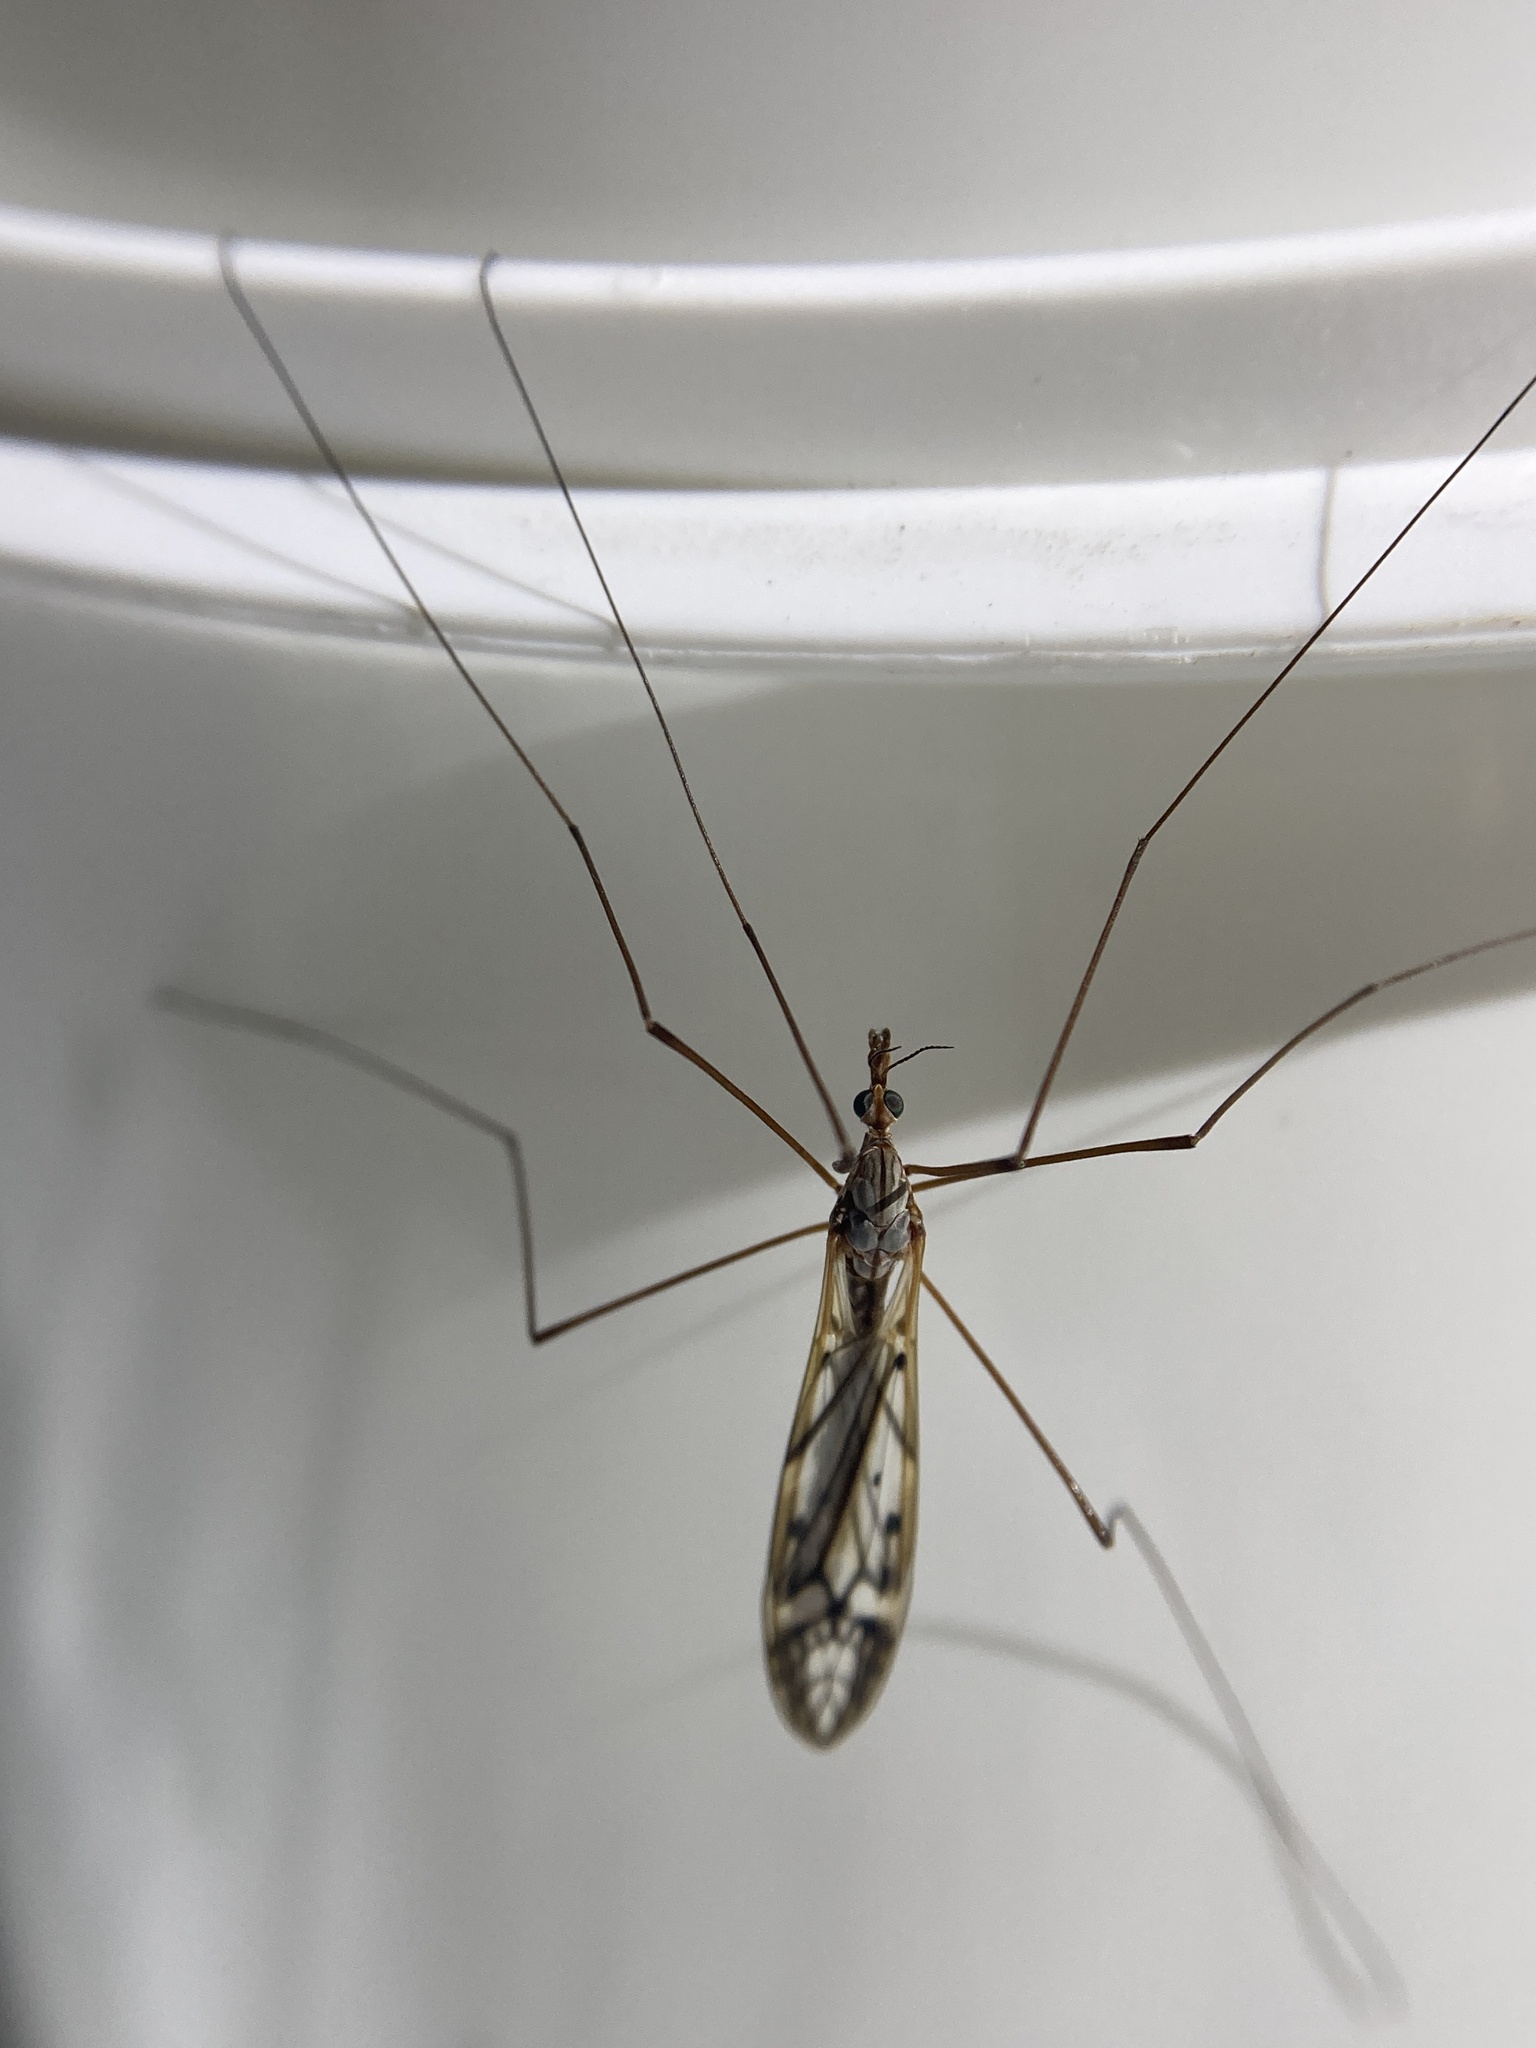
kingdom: Animalia
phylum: Arthropoda
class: Insecta
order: Diptera
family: Tipulidae
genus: Zelandotipula
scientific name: Zelandotipula novarae
